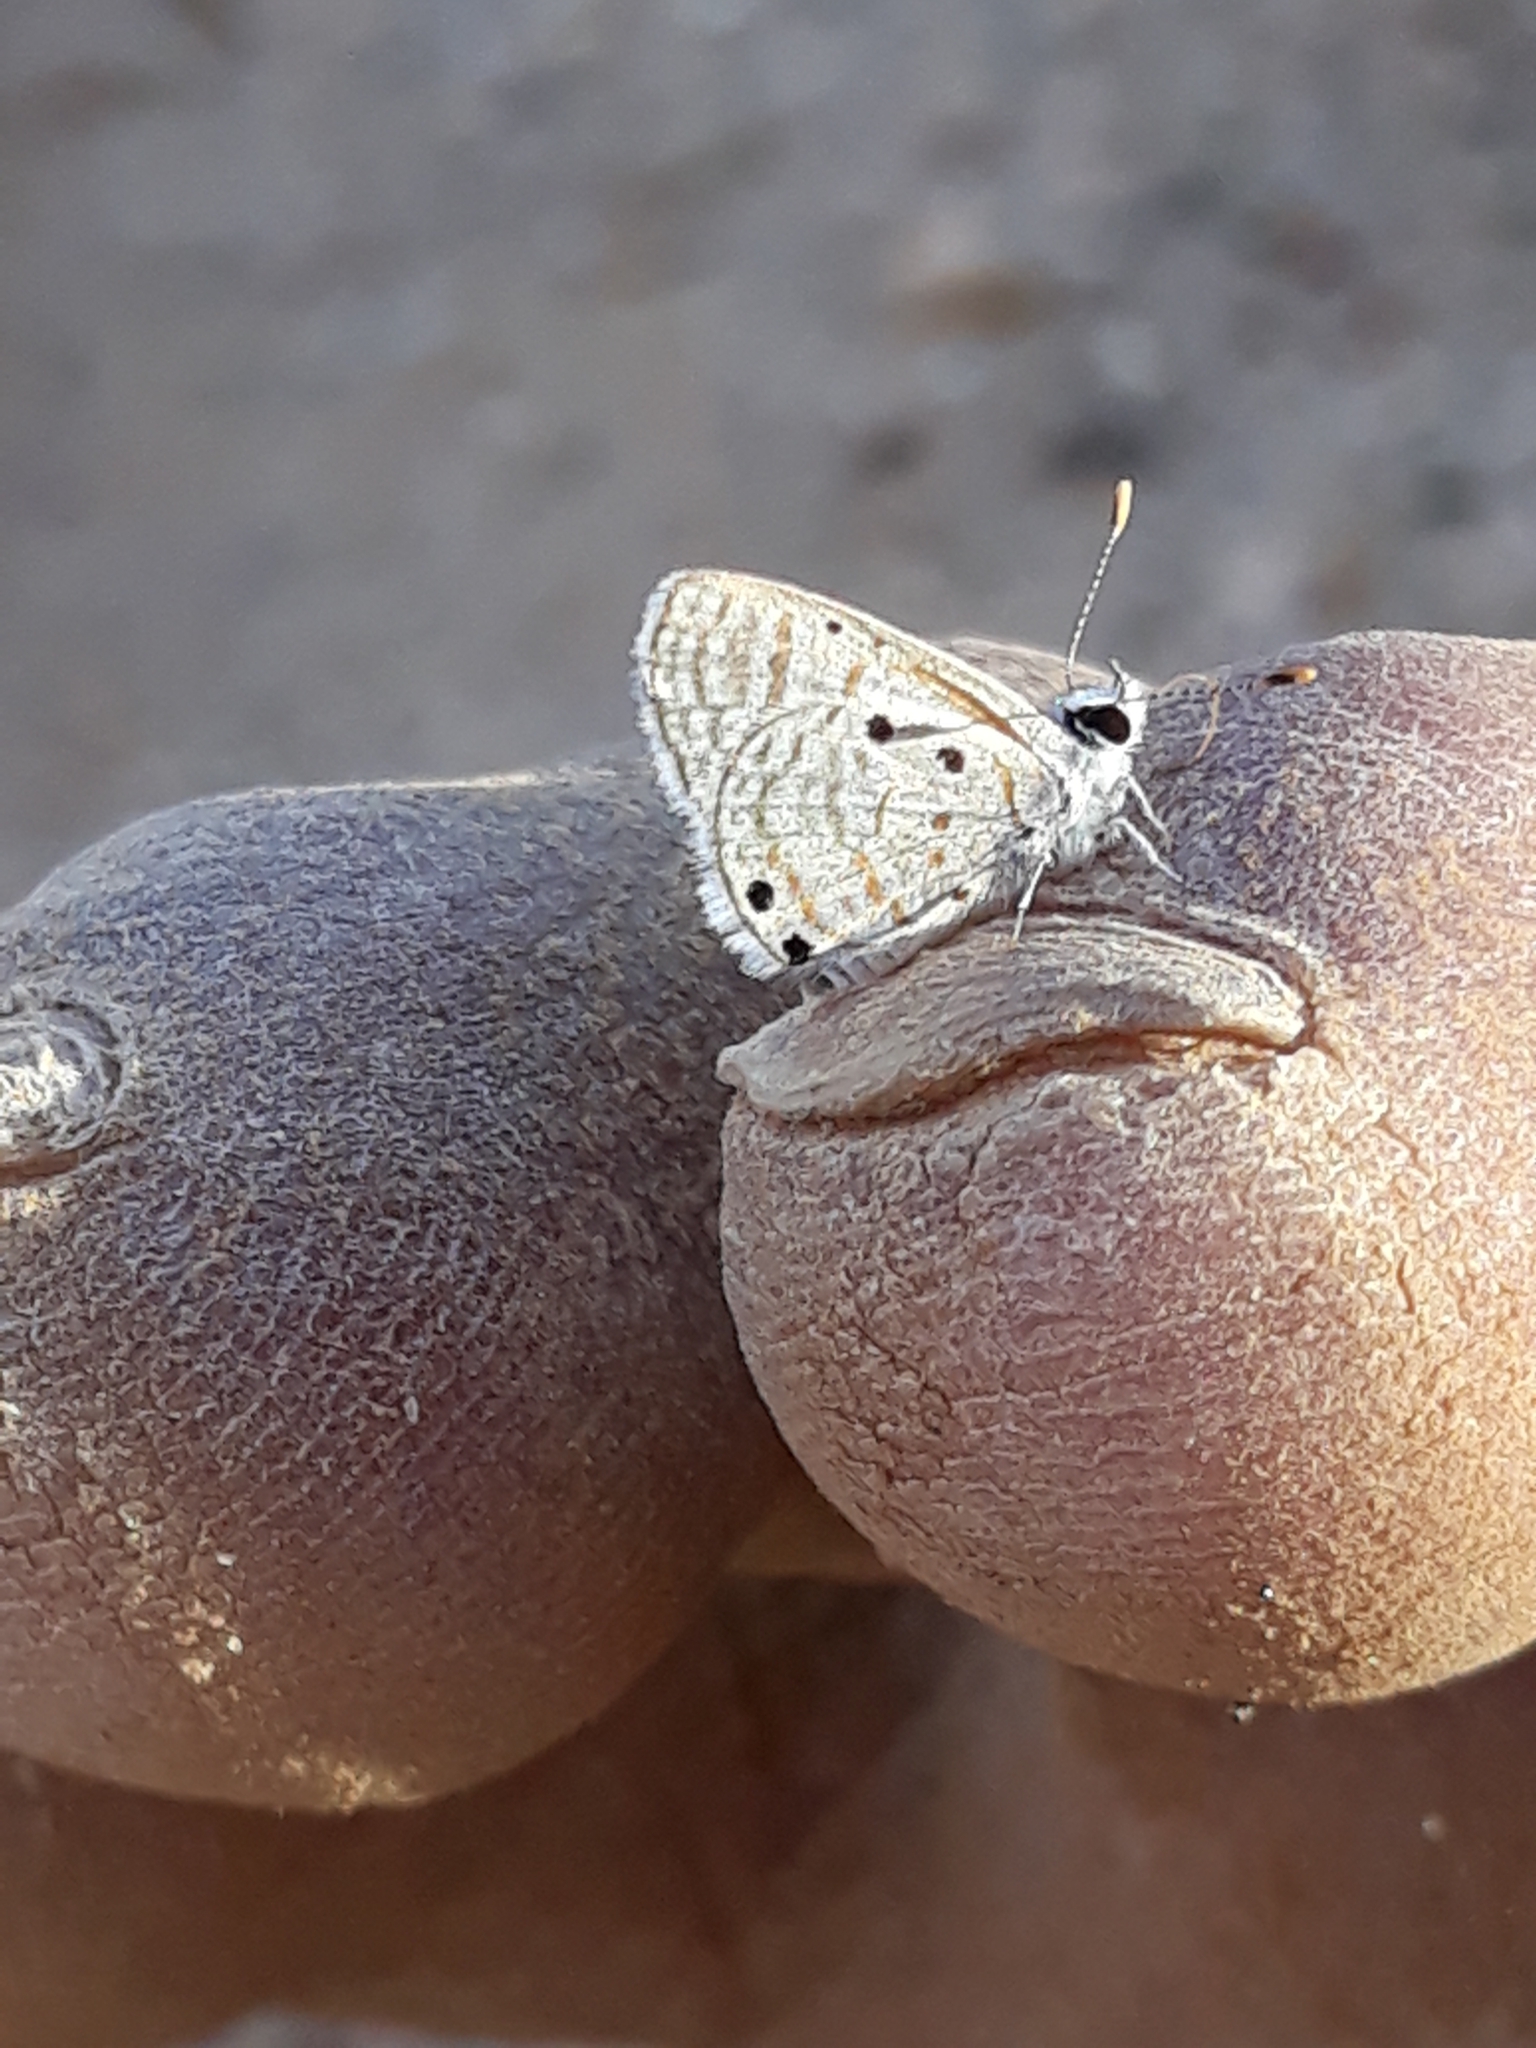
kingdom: Animalia
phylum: Arthropoda
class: Insecta
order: Lepidoptera
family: Lycaenidae
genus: Azanus
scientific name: Azanus ubaldus
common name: Desert babul blue
